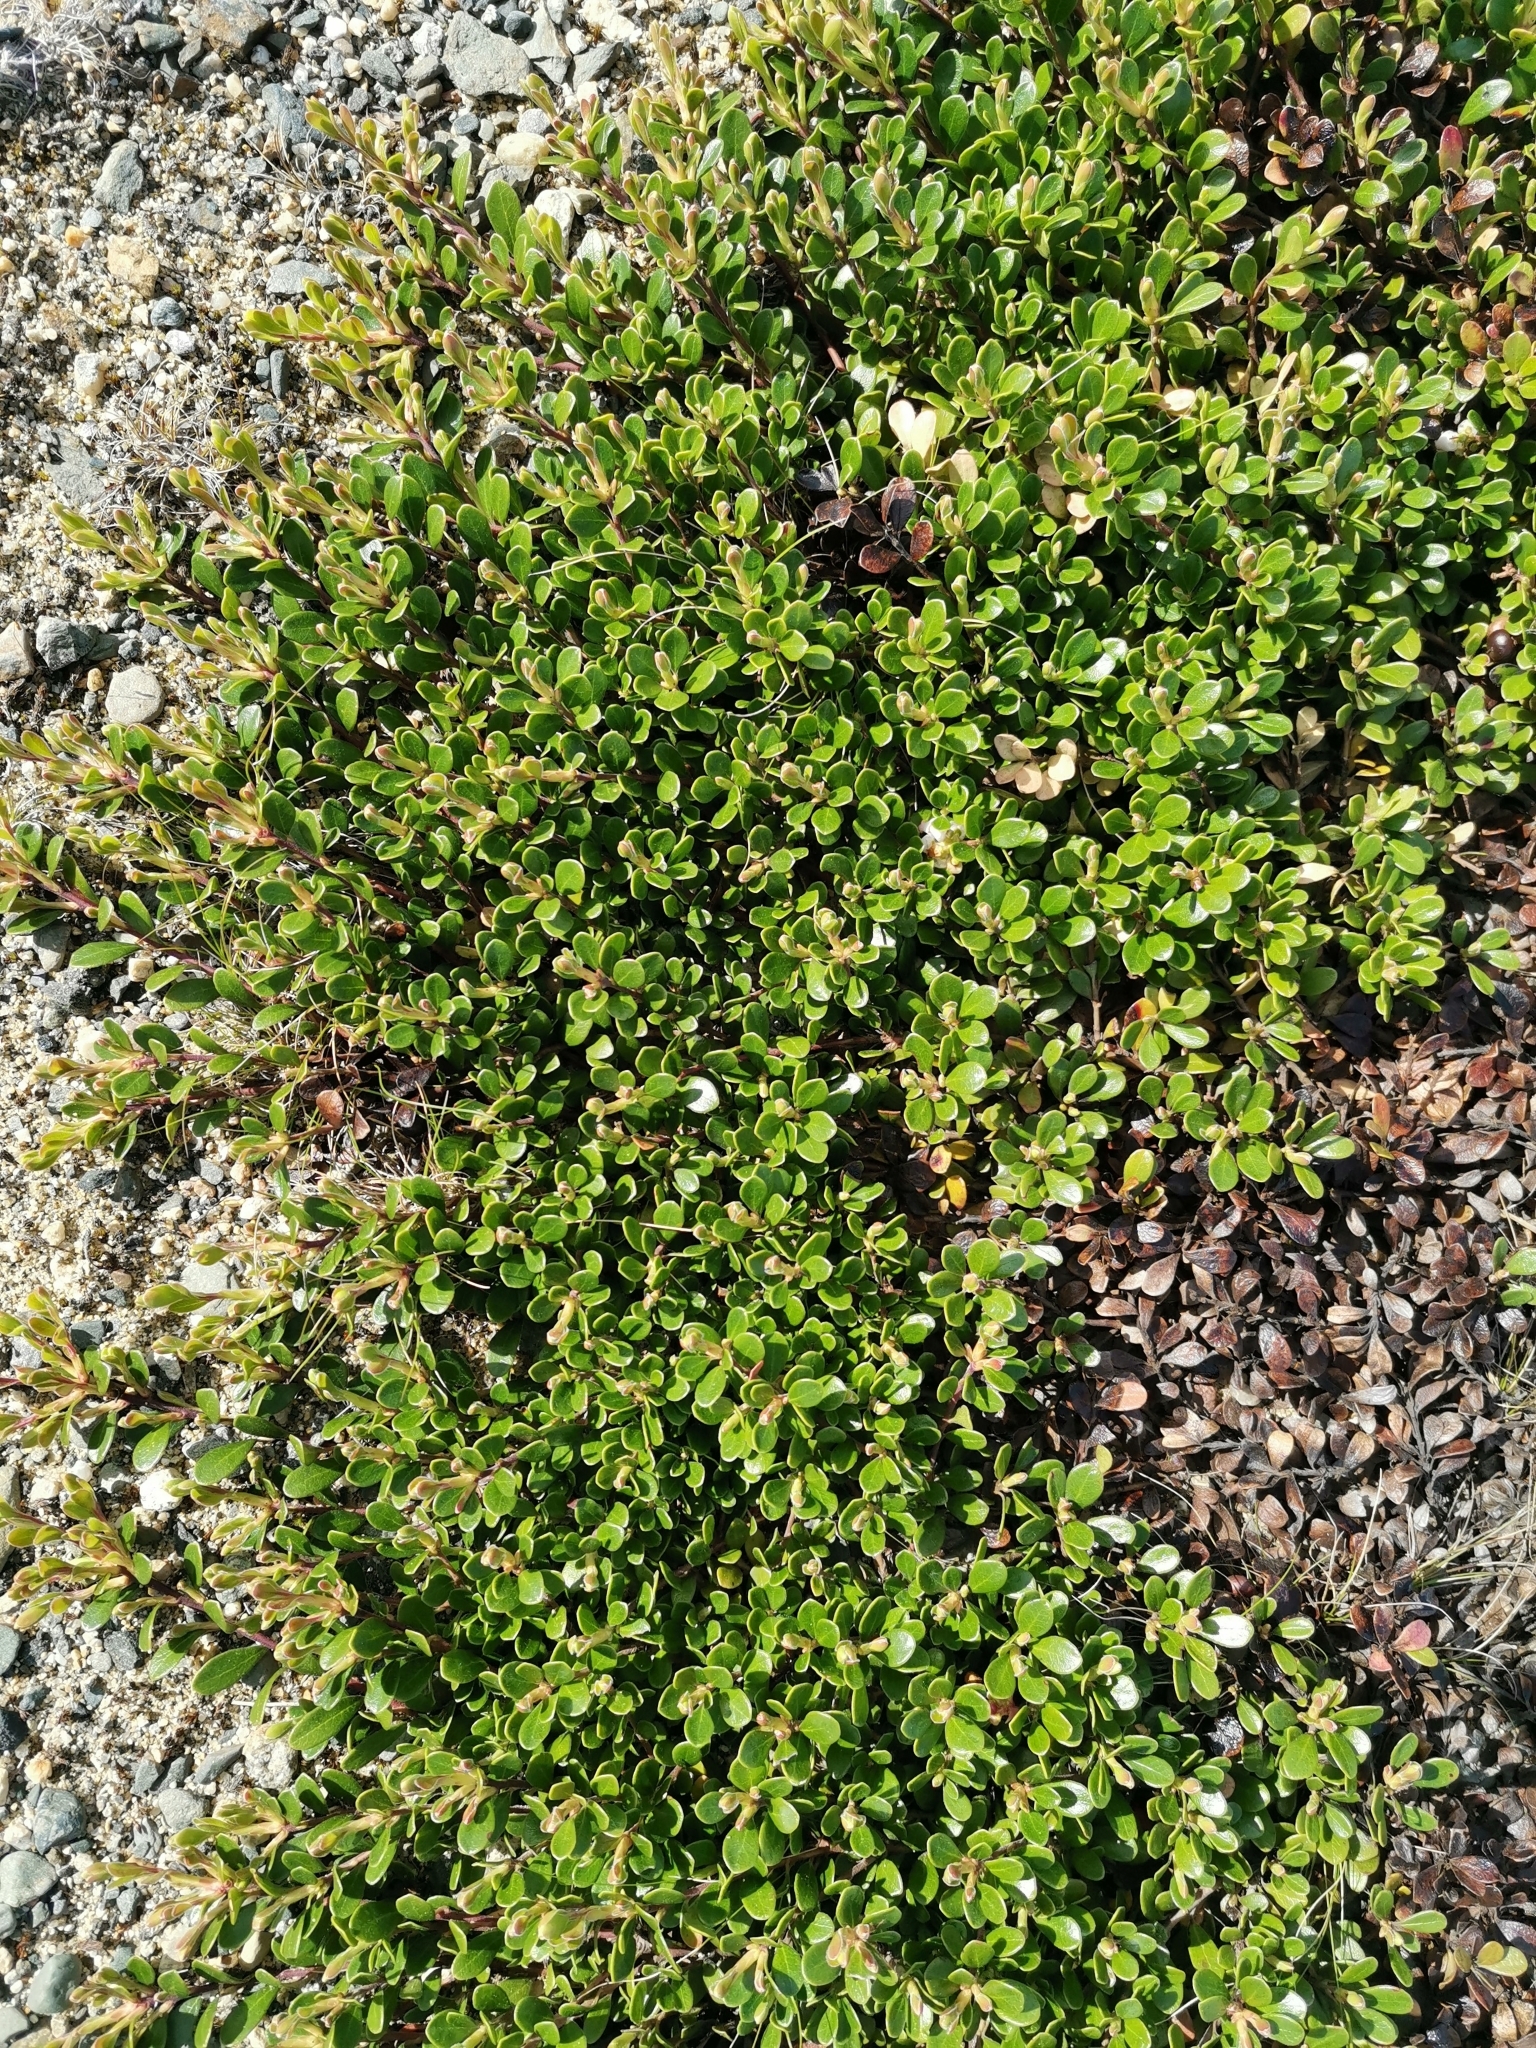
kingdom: Plantae
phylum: Tracheophyta
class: Magnoliopsida
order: Ericales
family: Ericaceae
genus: Arctostaphylos
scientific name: Arctostaphylos uva-ursi
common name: Bearberry
